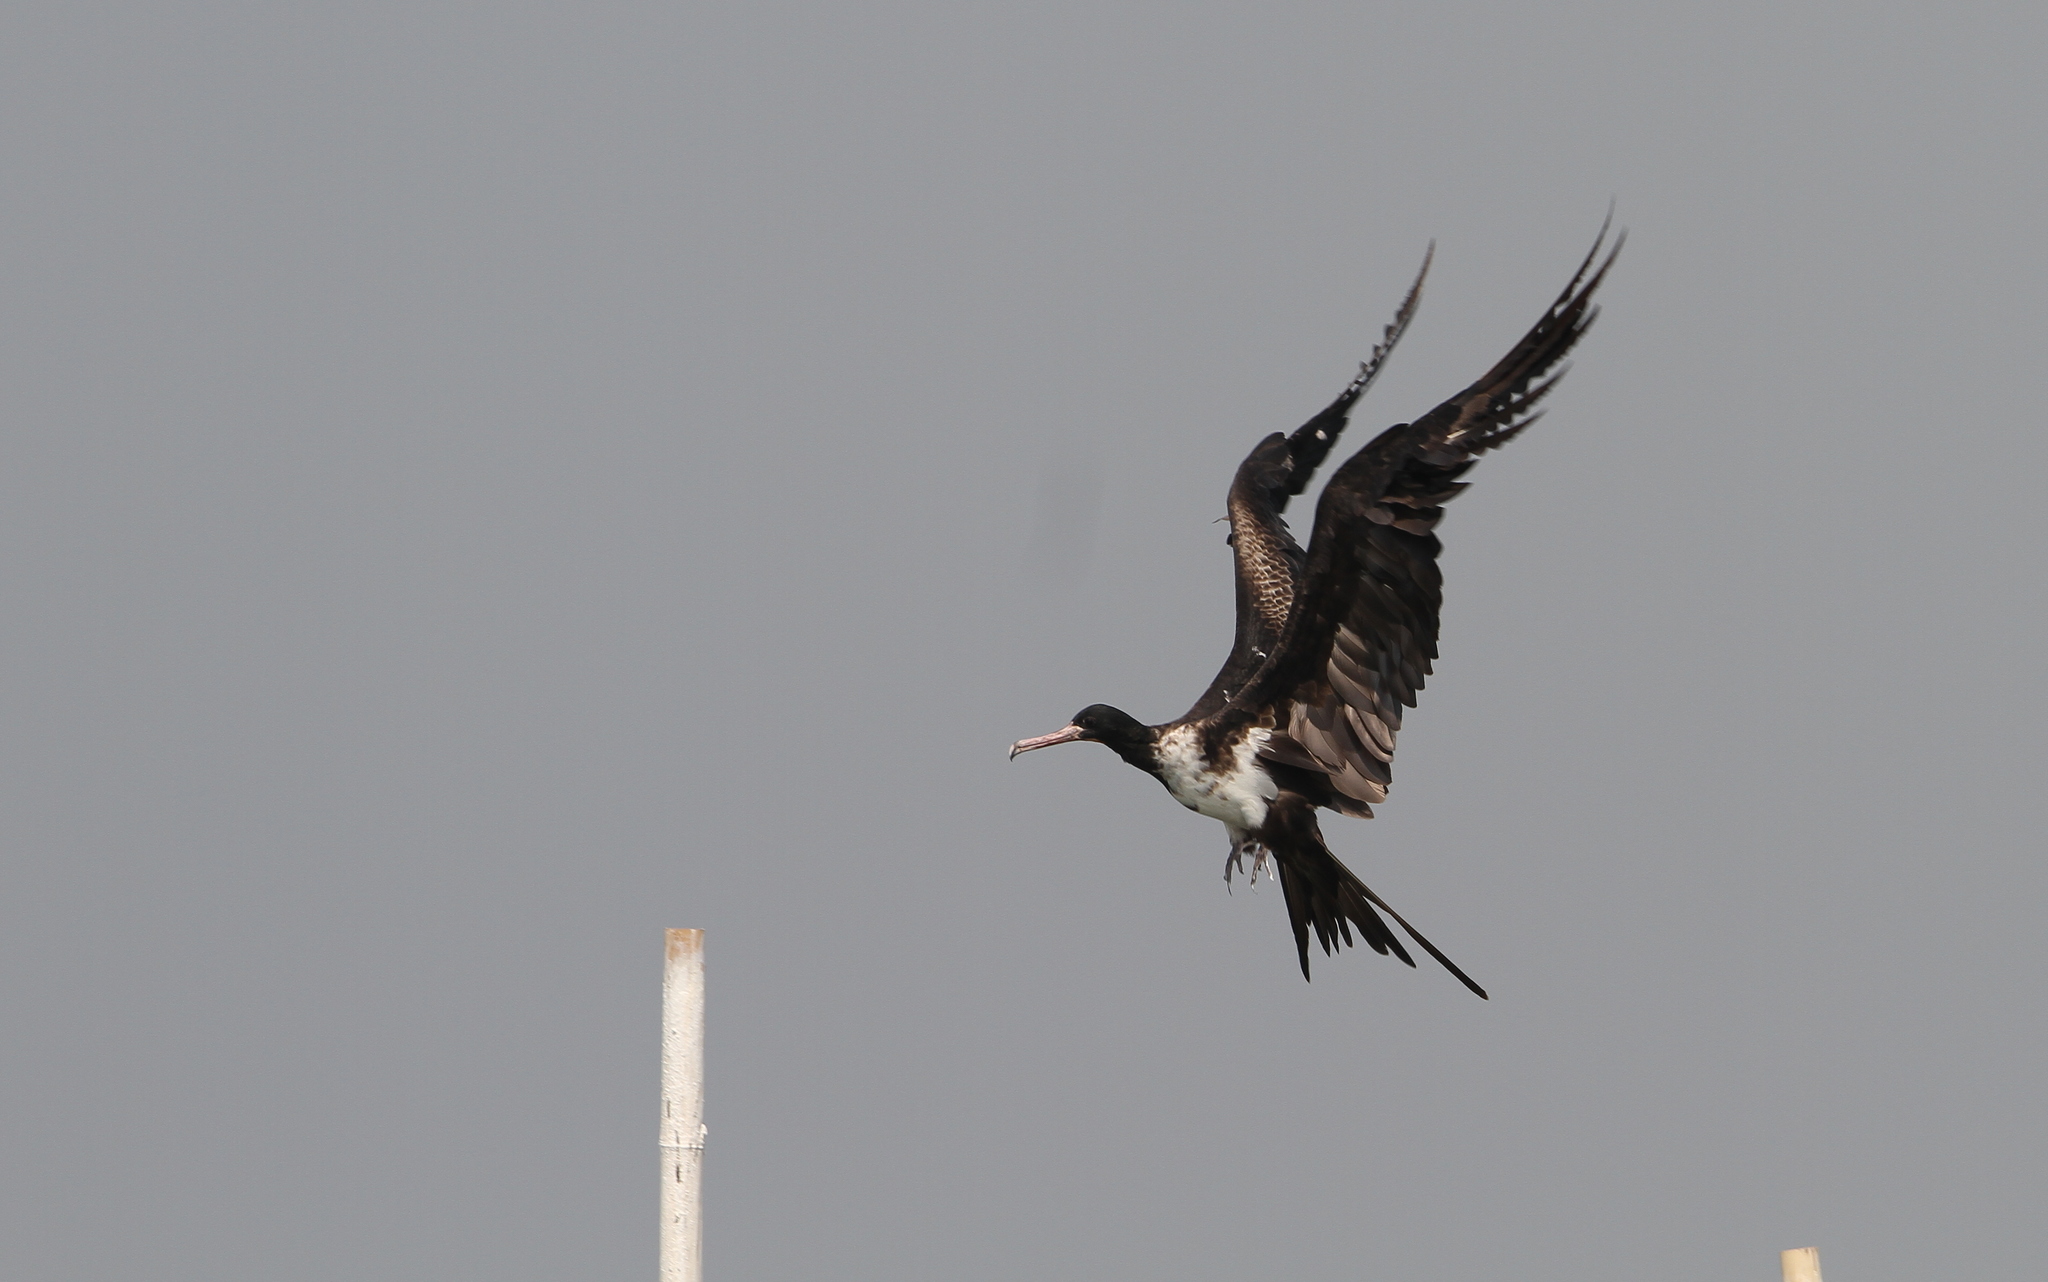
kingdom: Animalia
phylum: Chordata
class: Aves
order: Suliformes
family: Fregatidae
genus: Fregata
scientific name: Fregata andrewsi
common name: Christmas frigatebird
